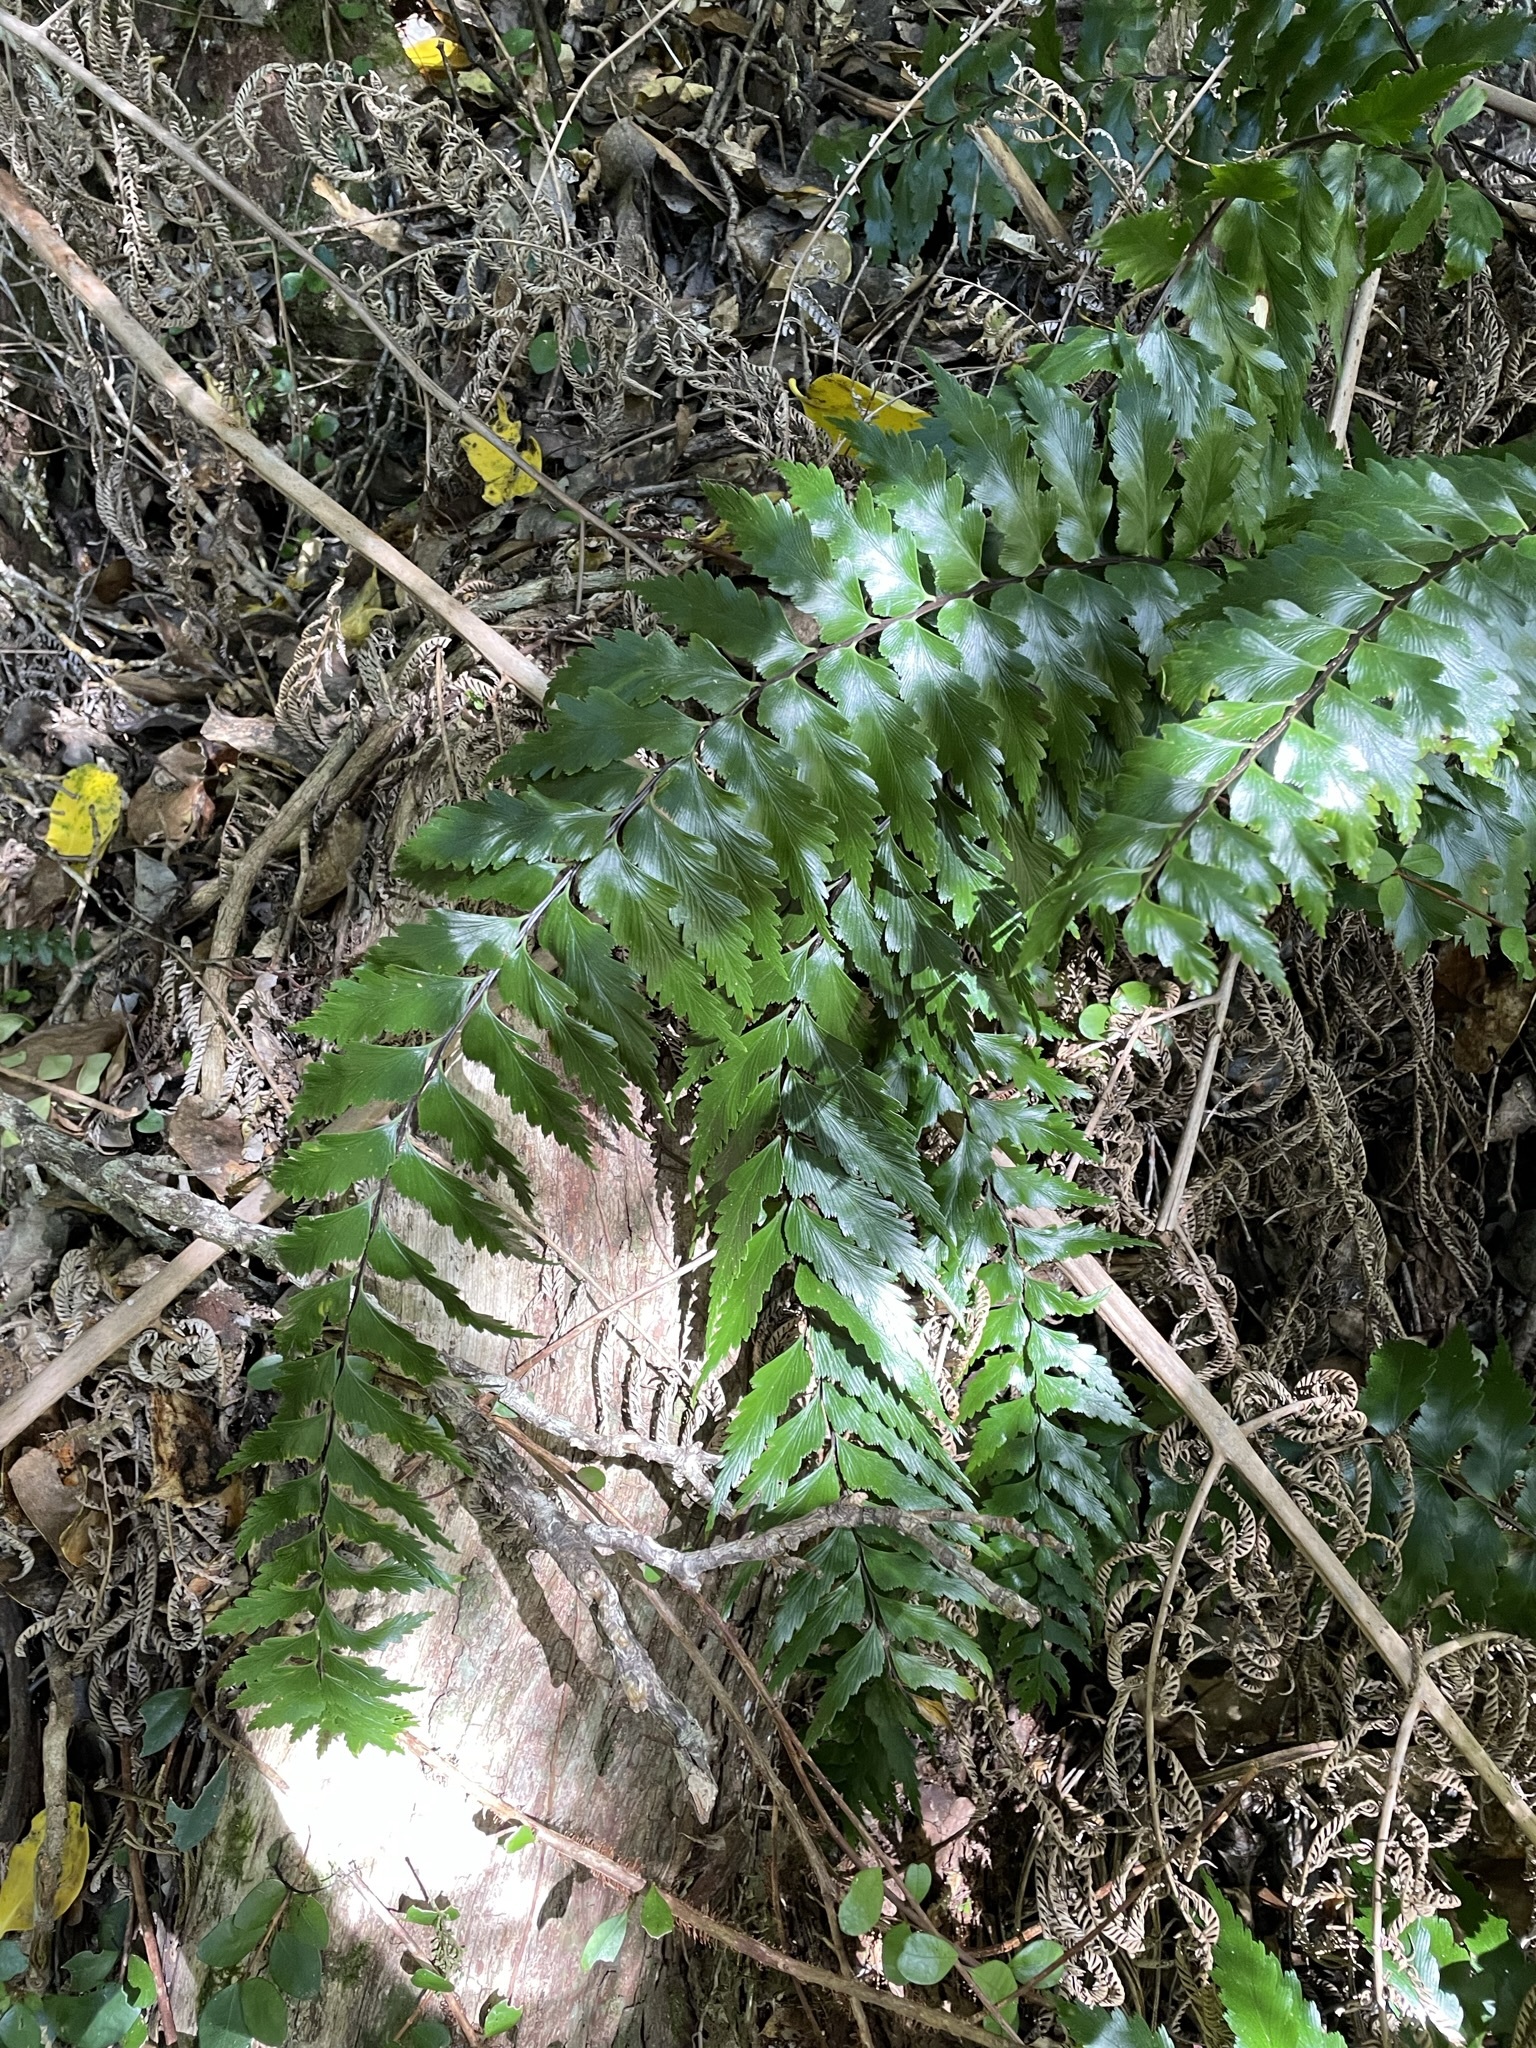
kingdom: Plantae
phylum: Tracheophyta
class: Polypodiopsida
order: Polypodiales
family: Aspleniaceae
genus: Asplenium
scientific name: Asplenium polyodon
